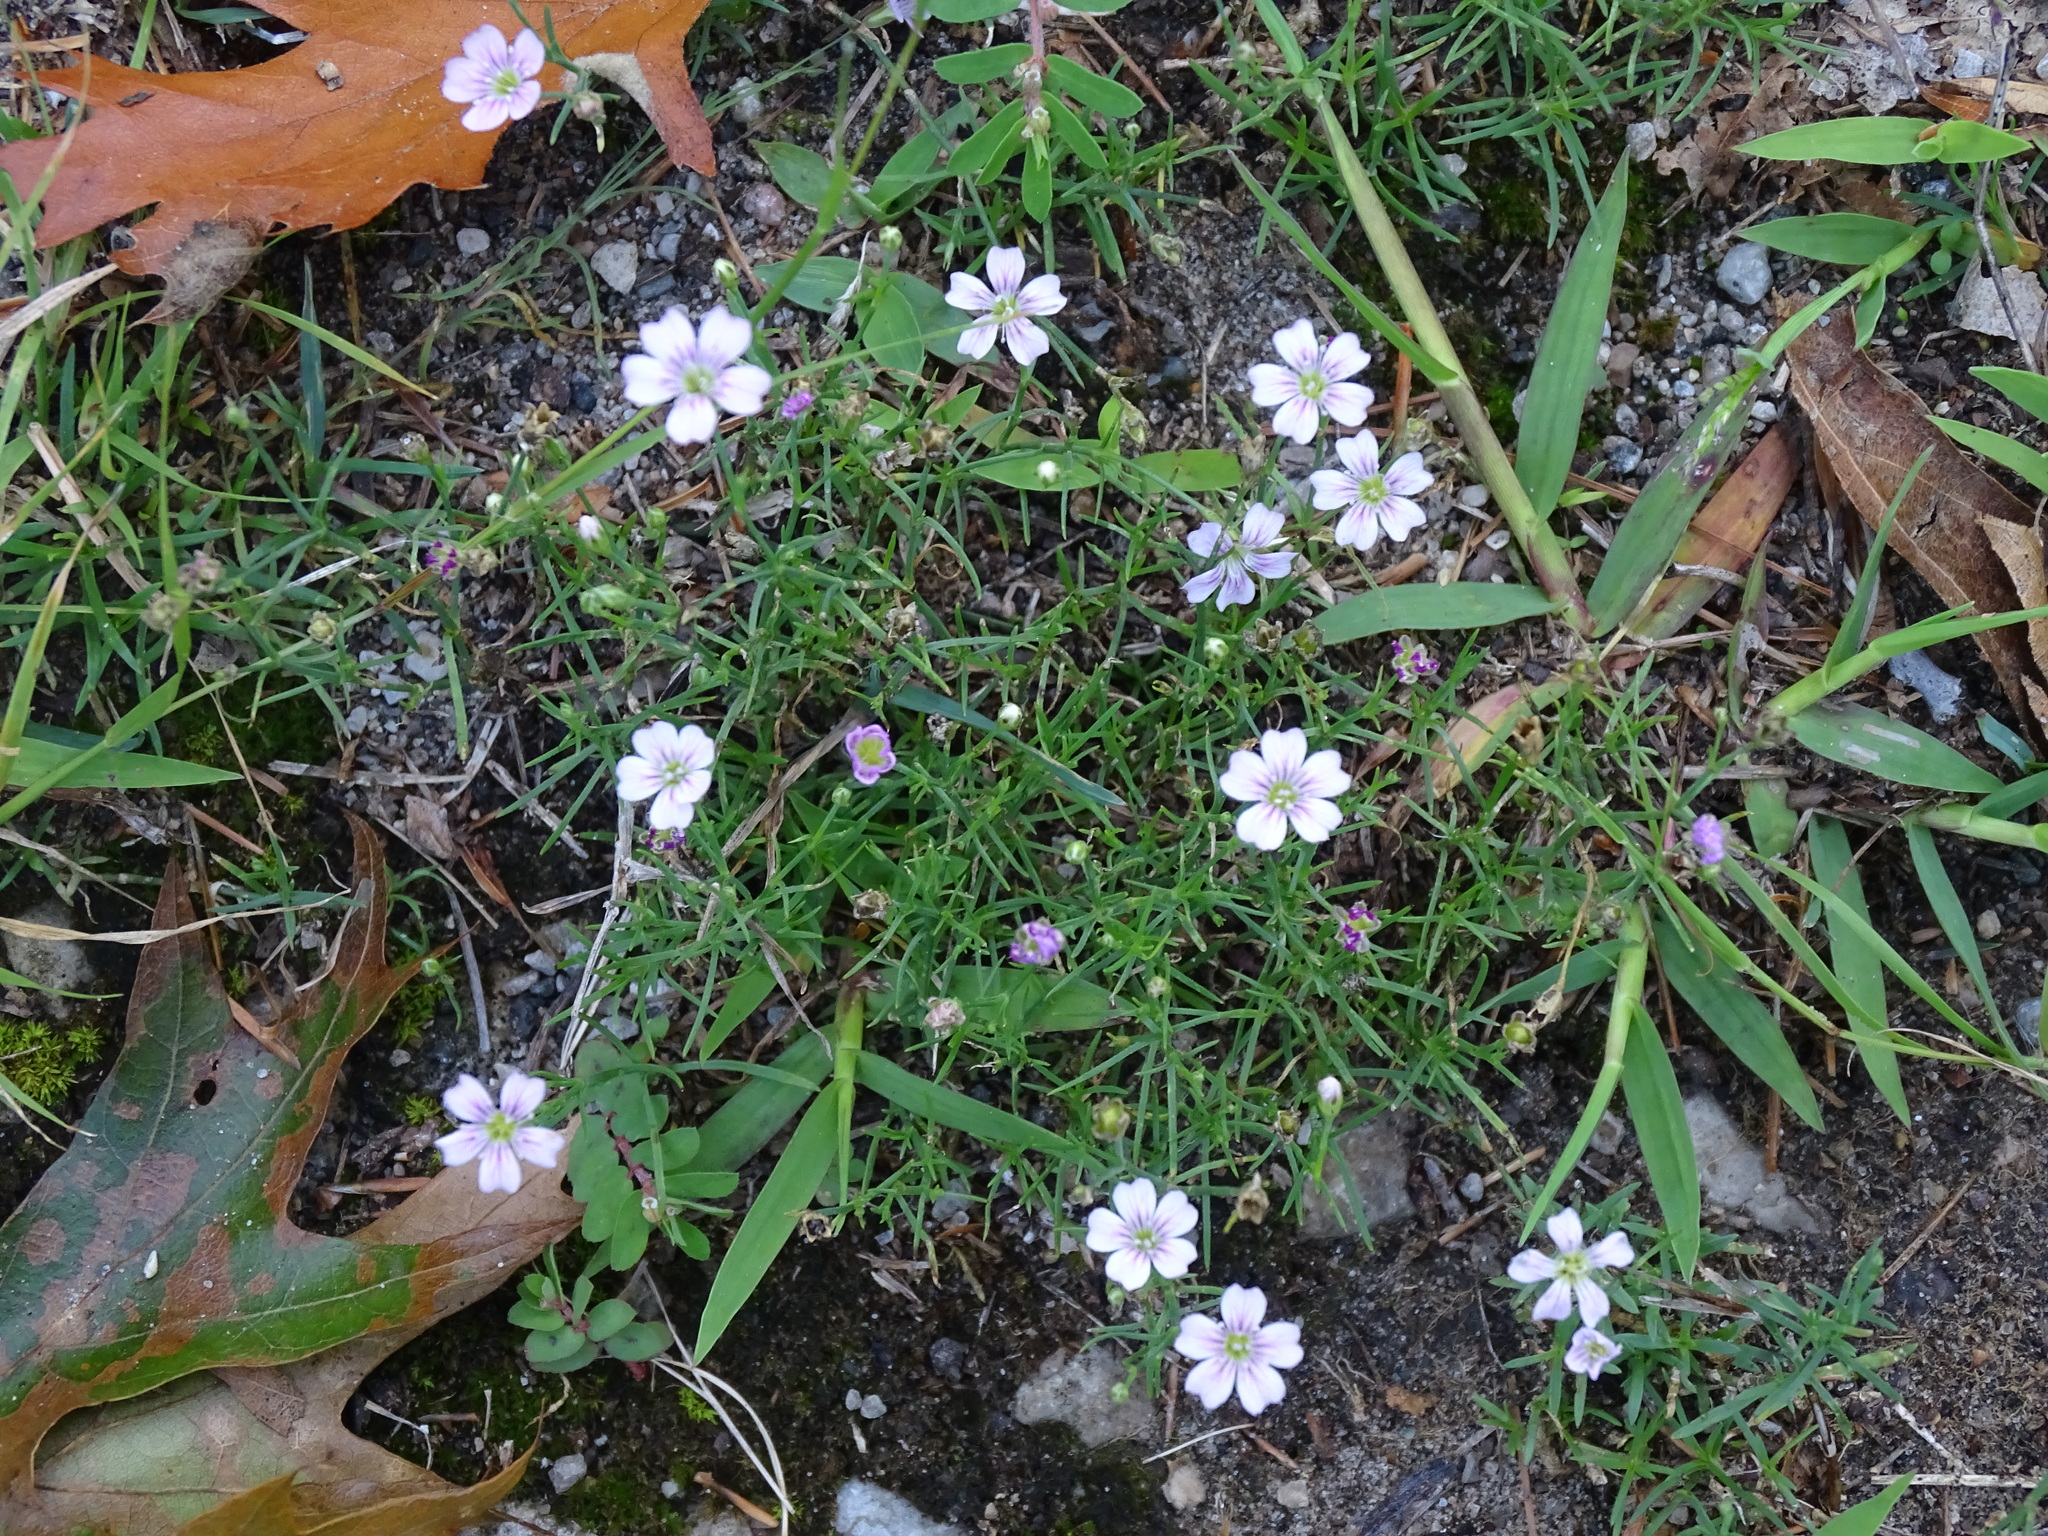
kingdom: Plantae
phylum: Tracheophyta
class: Magnoliopsida
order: Caryophyllales
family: Caryophyllaceae
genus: Psammophiliella
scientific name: Psammophiliella muralis
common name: Cushion baby's-breath
